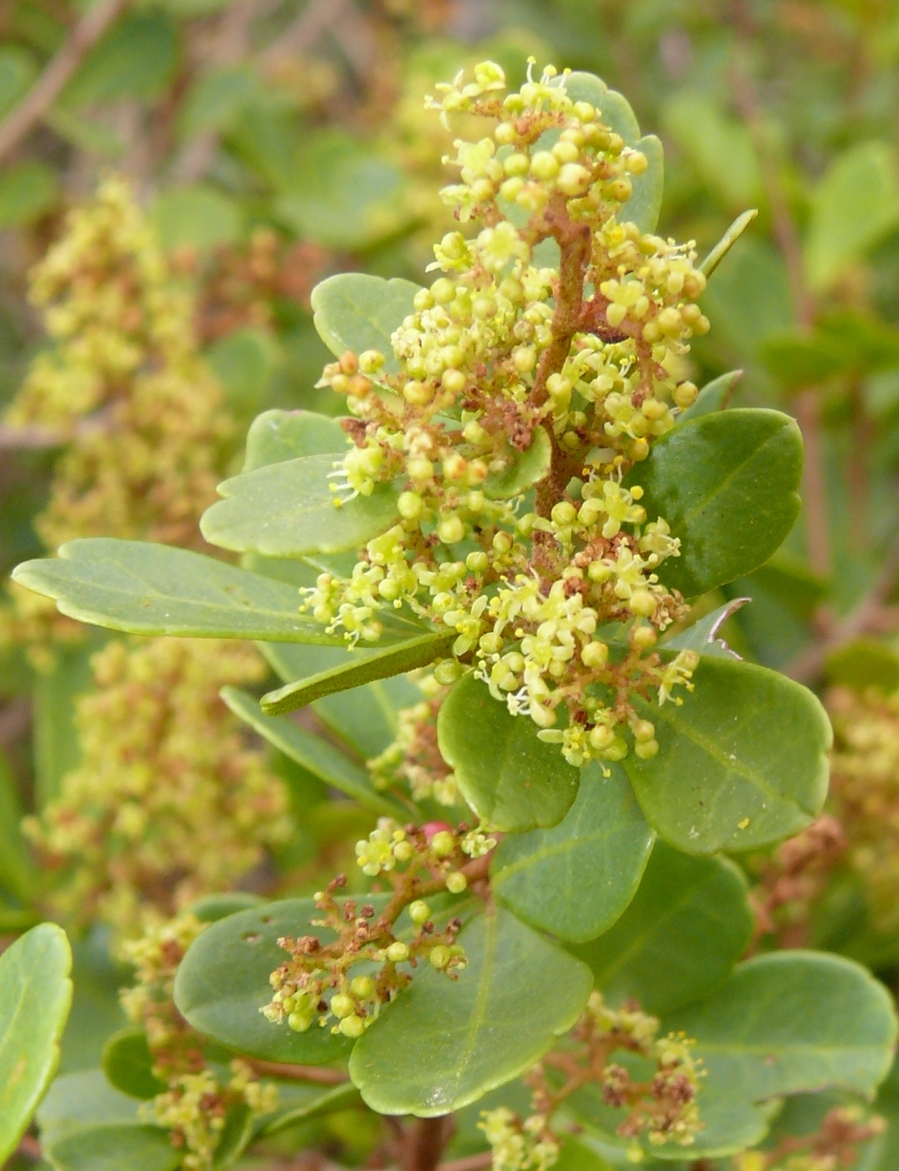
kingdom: Plantae
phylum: Tracheophyta
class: Magnoliopsida
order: Sapindales
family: Anacardiaceae
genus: Searsia
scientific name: Searsia crenata
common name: Crowberry
